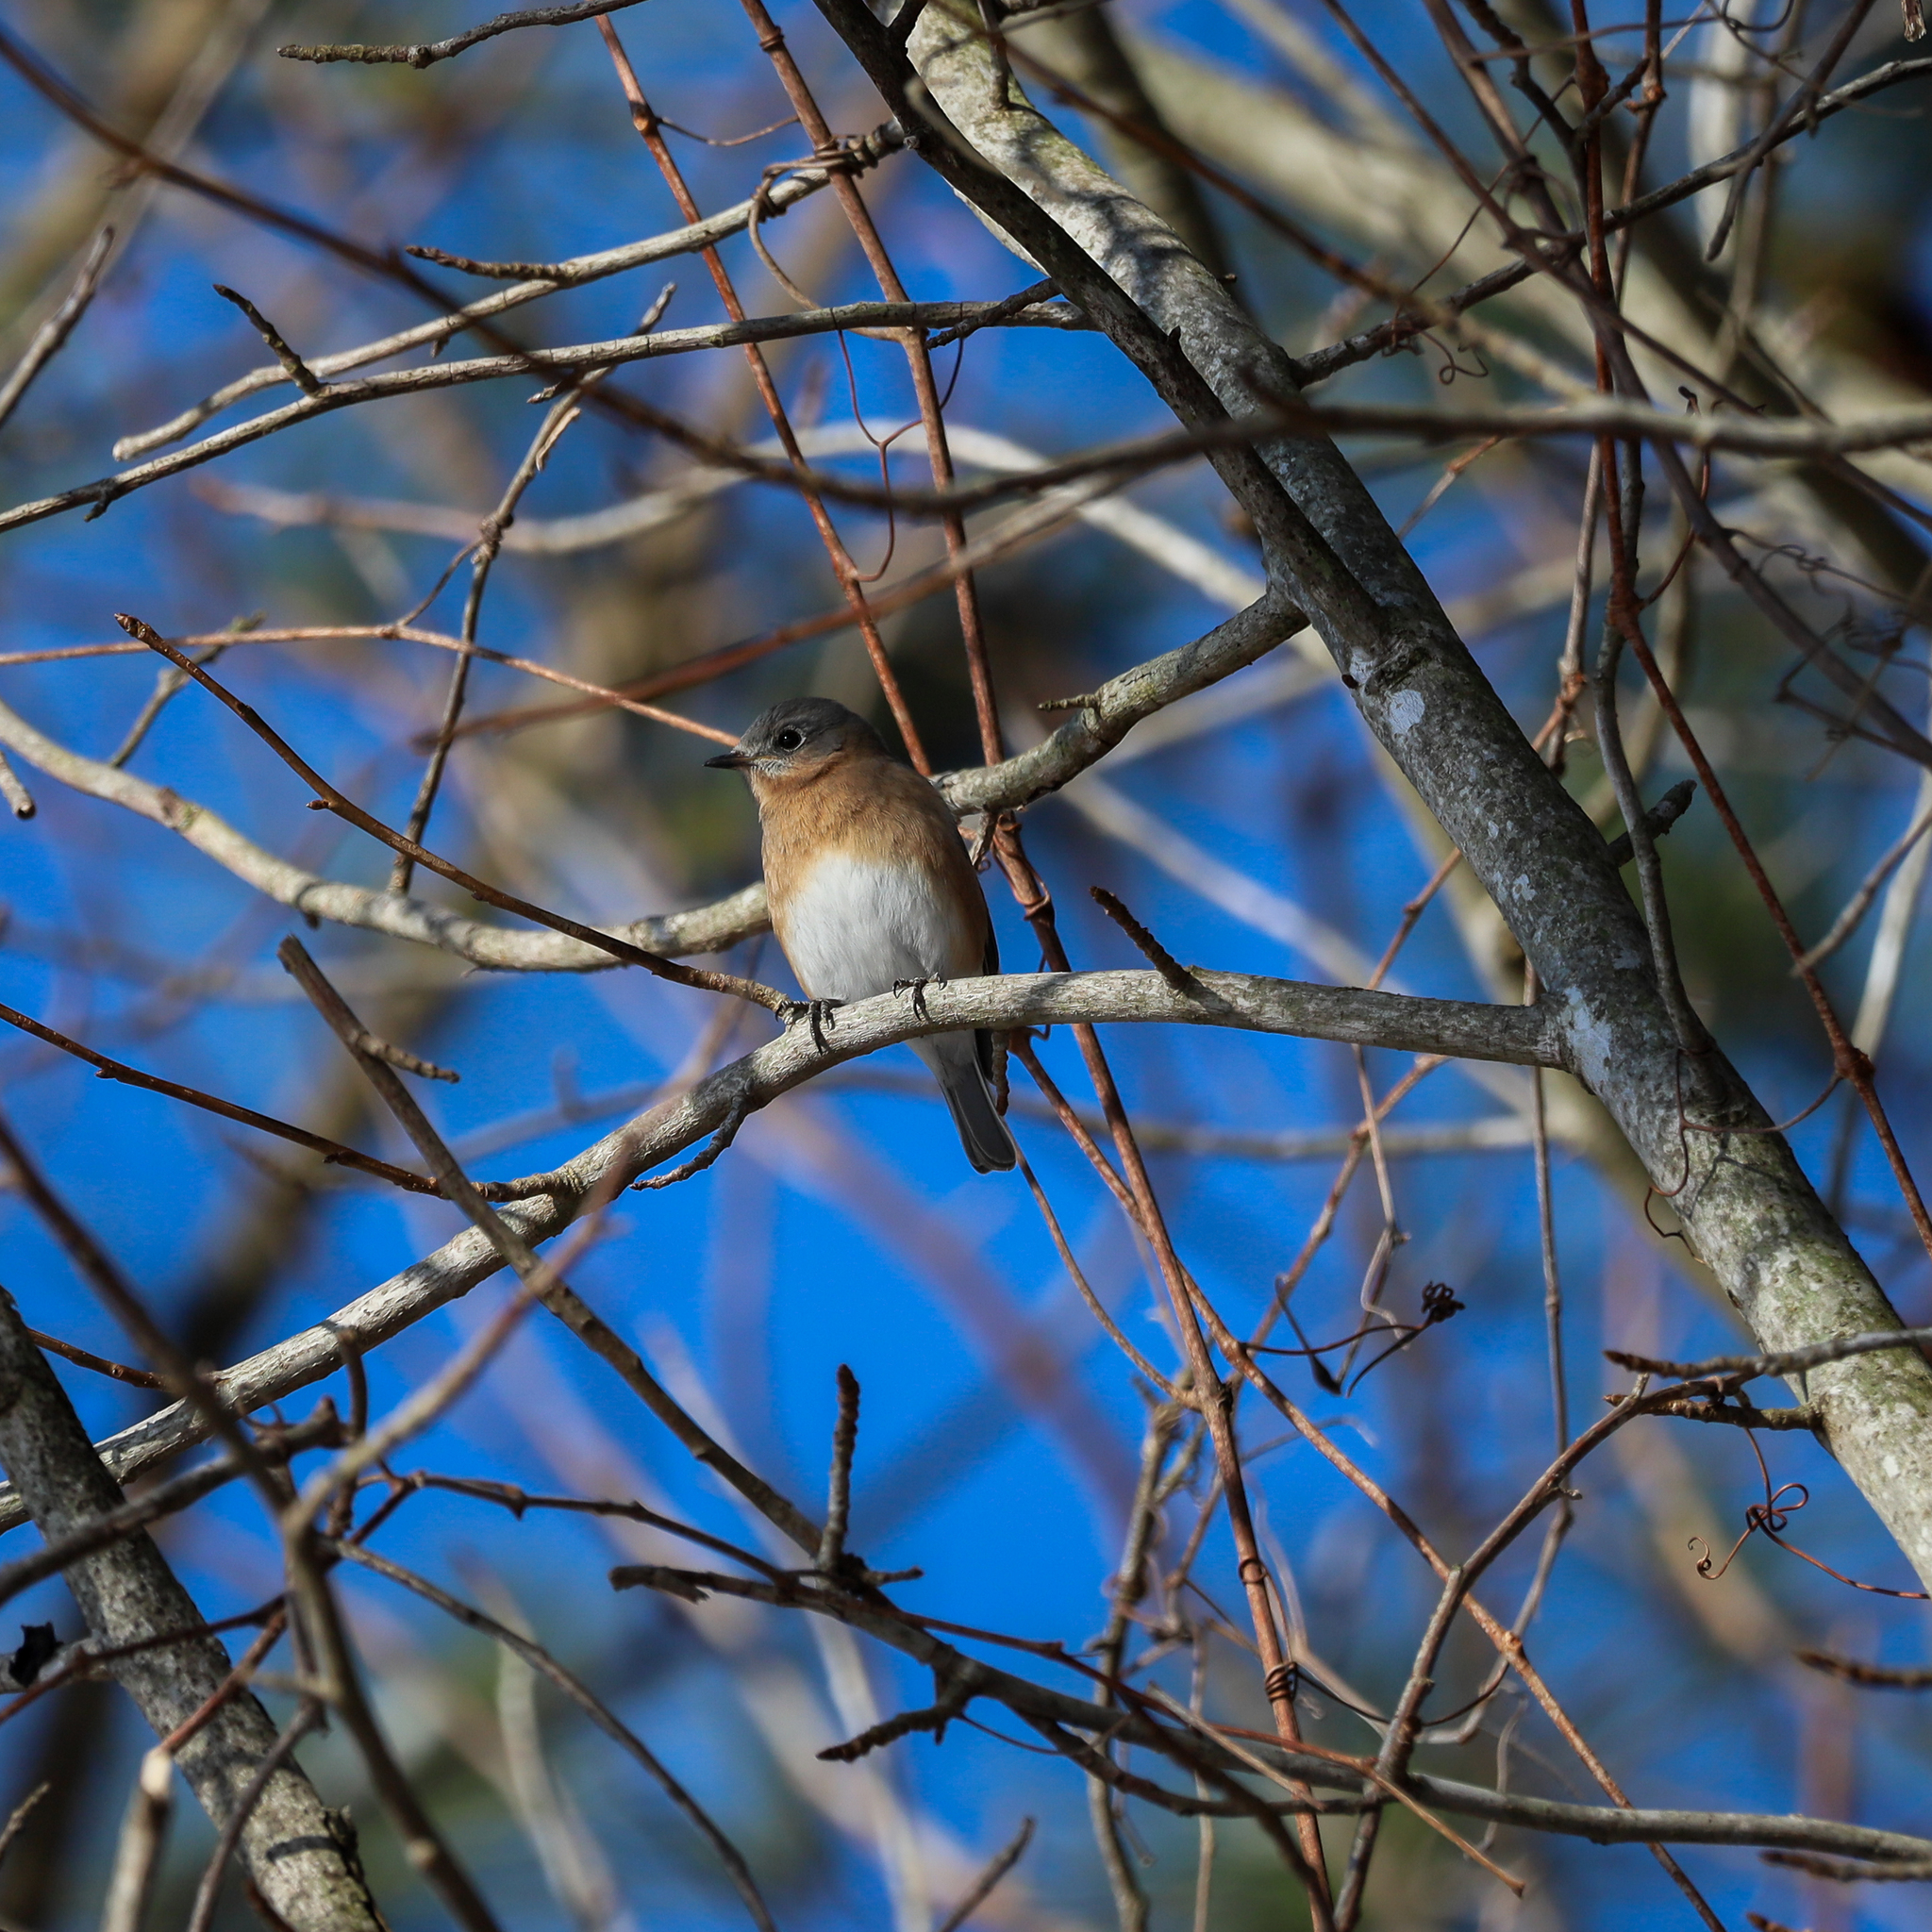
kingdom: Animalia
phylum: Chordata
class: Aves
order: Passeriformes
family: Turdidae
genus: Sialia
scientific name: Sialia sialis
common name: Eastern bluebird
